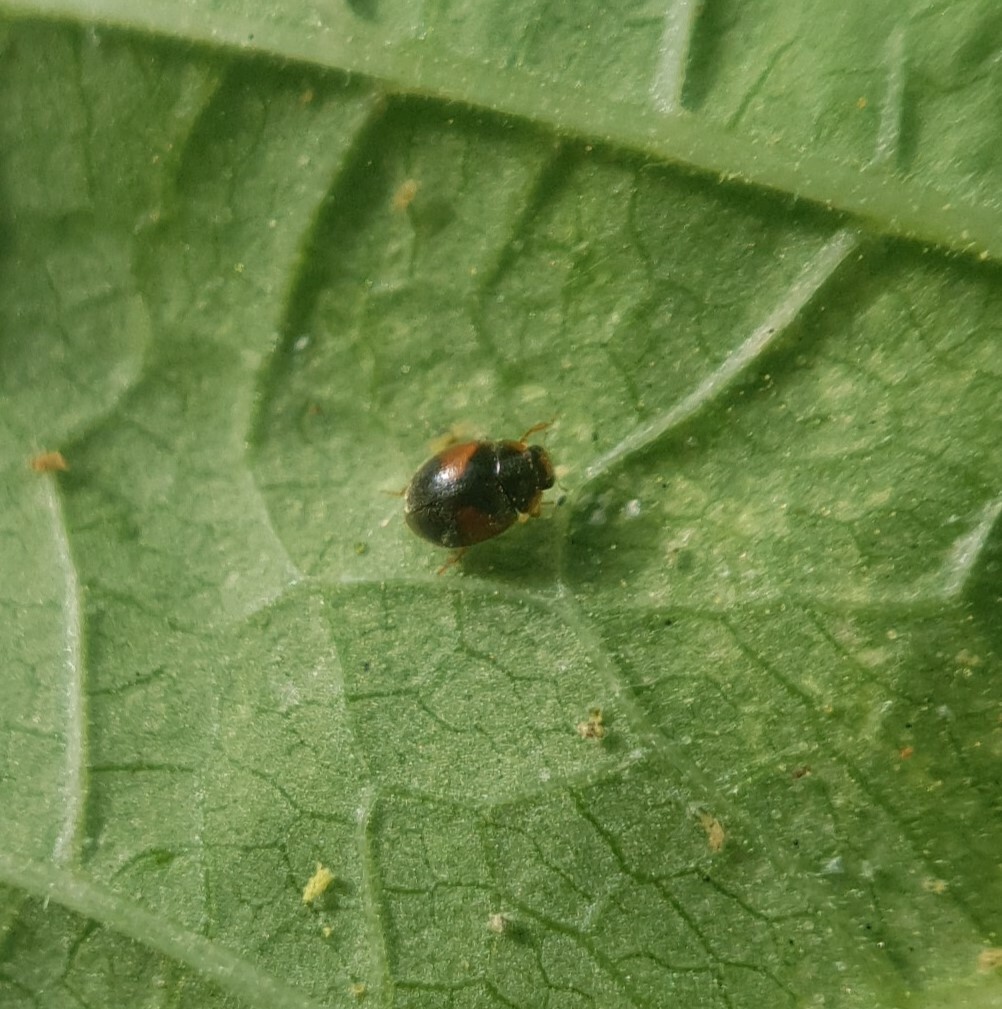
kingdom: Animalia
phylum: Arthropoda
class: Insecta
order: Coleoptera
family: Coccinellidae
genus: Scymnus
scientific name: Scymnus interruptus
